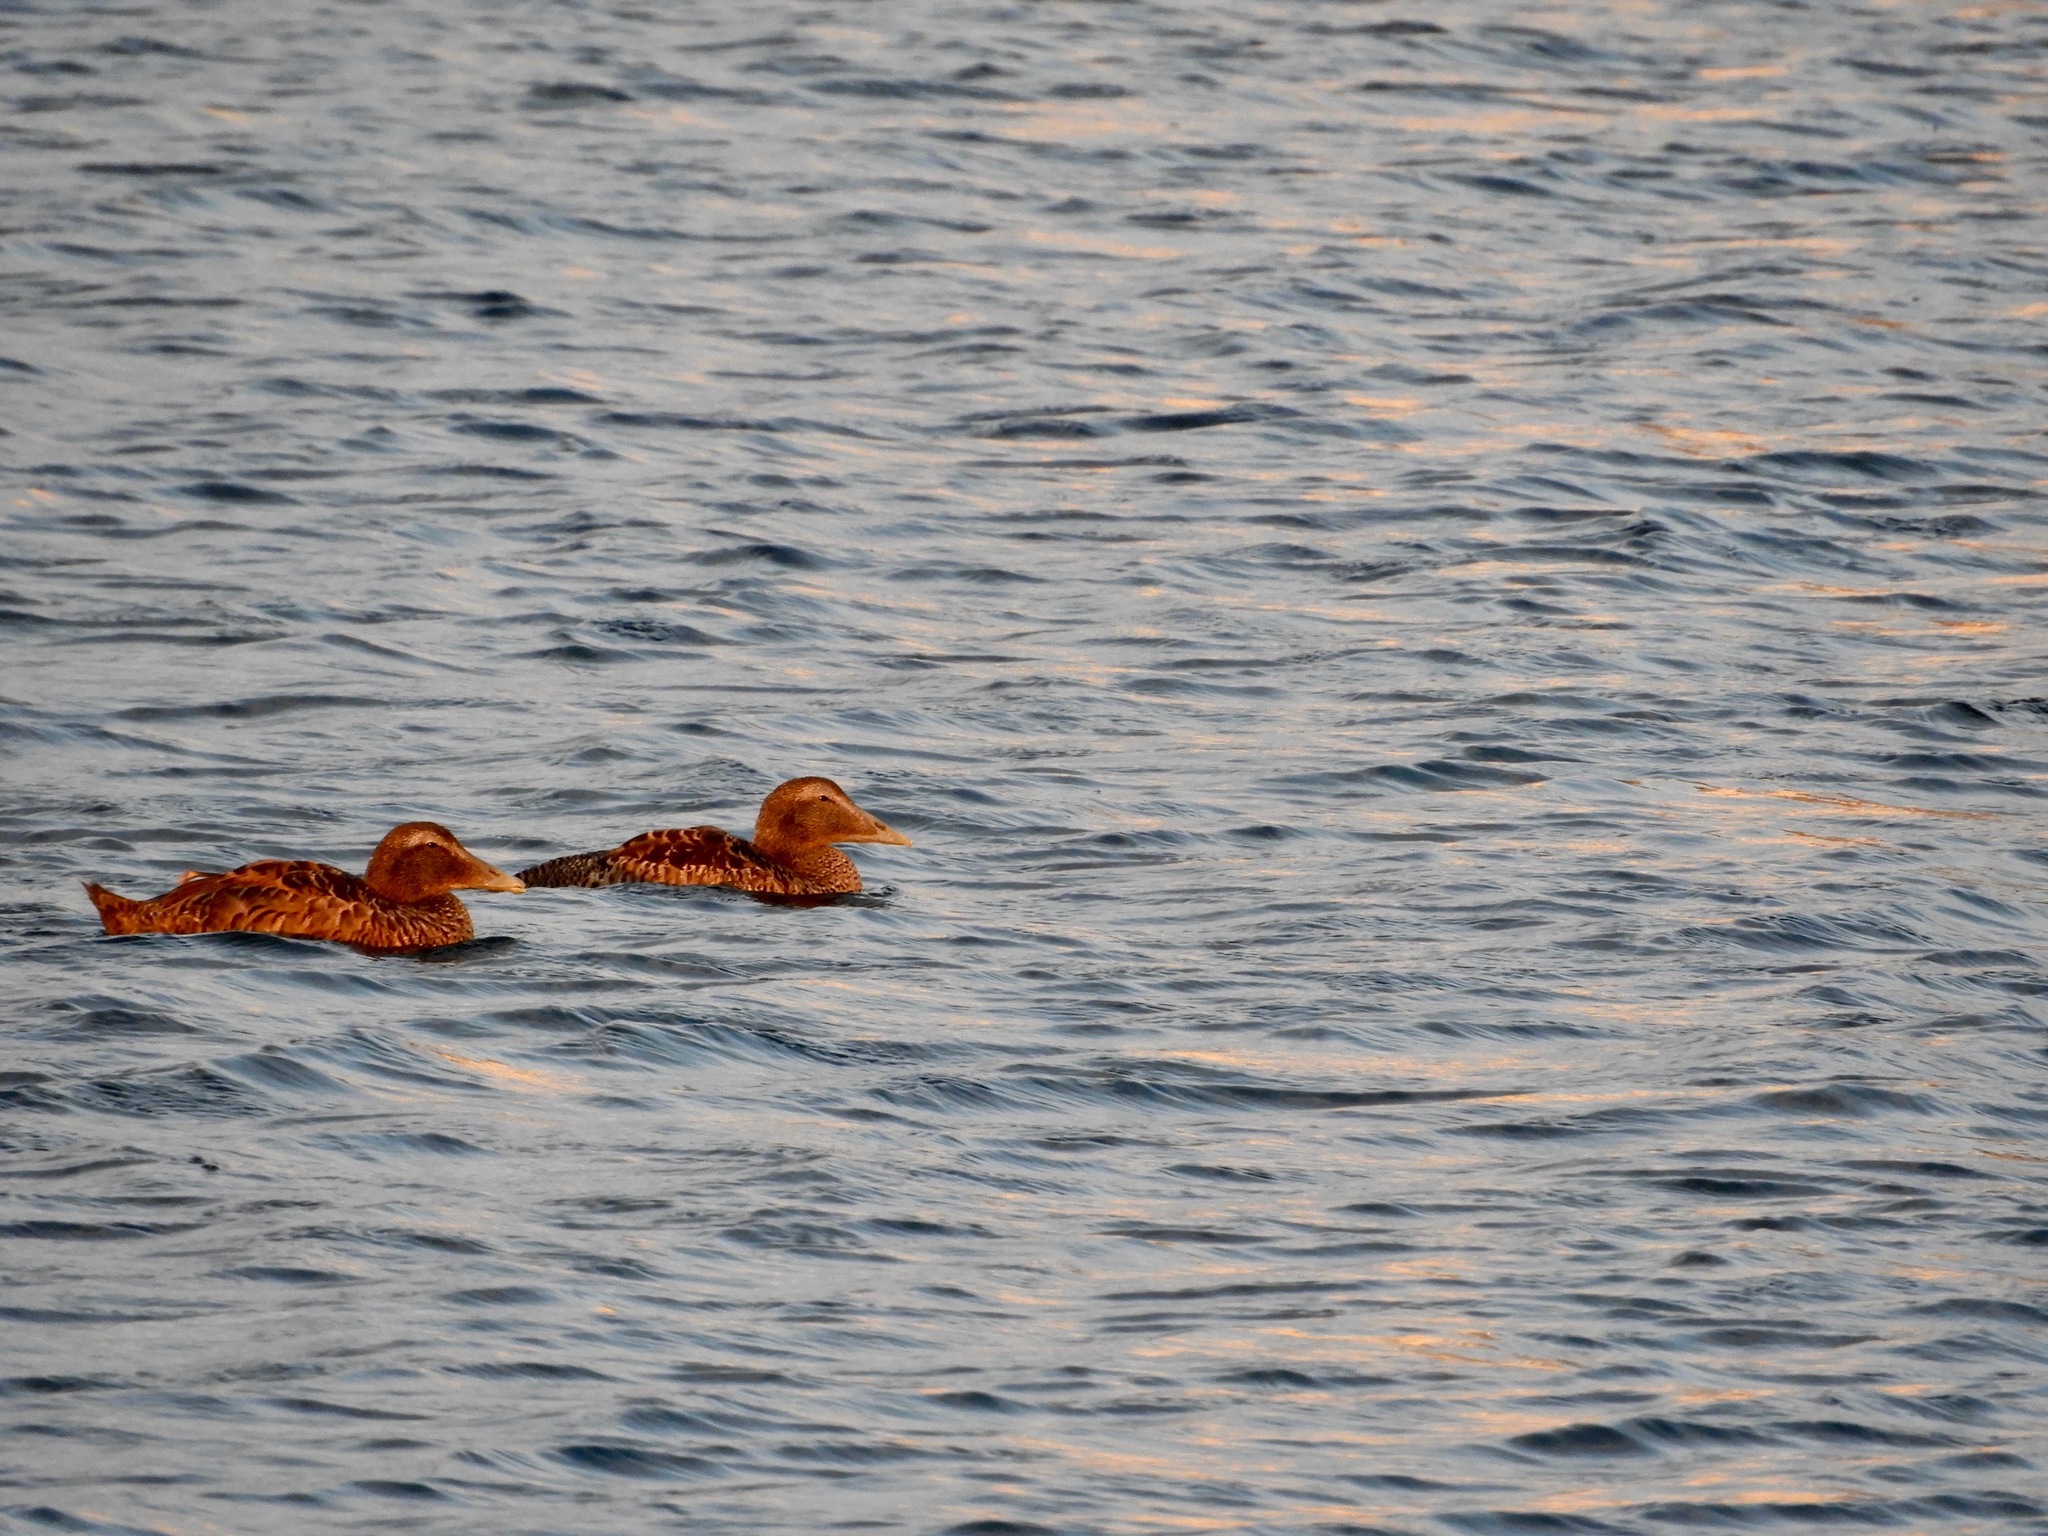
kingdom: Animalia
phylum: Chordata
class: Aves
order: Anseriformes
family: Anatidae
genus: Somateria
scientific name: Somateria mollissima
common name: Common eider
